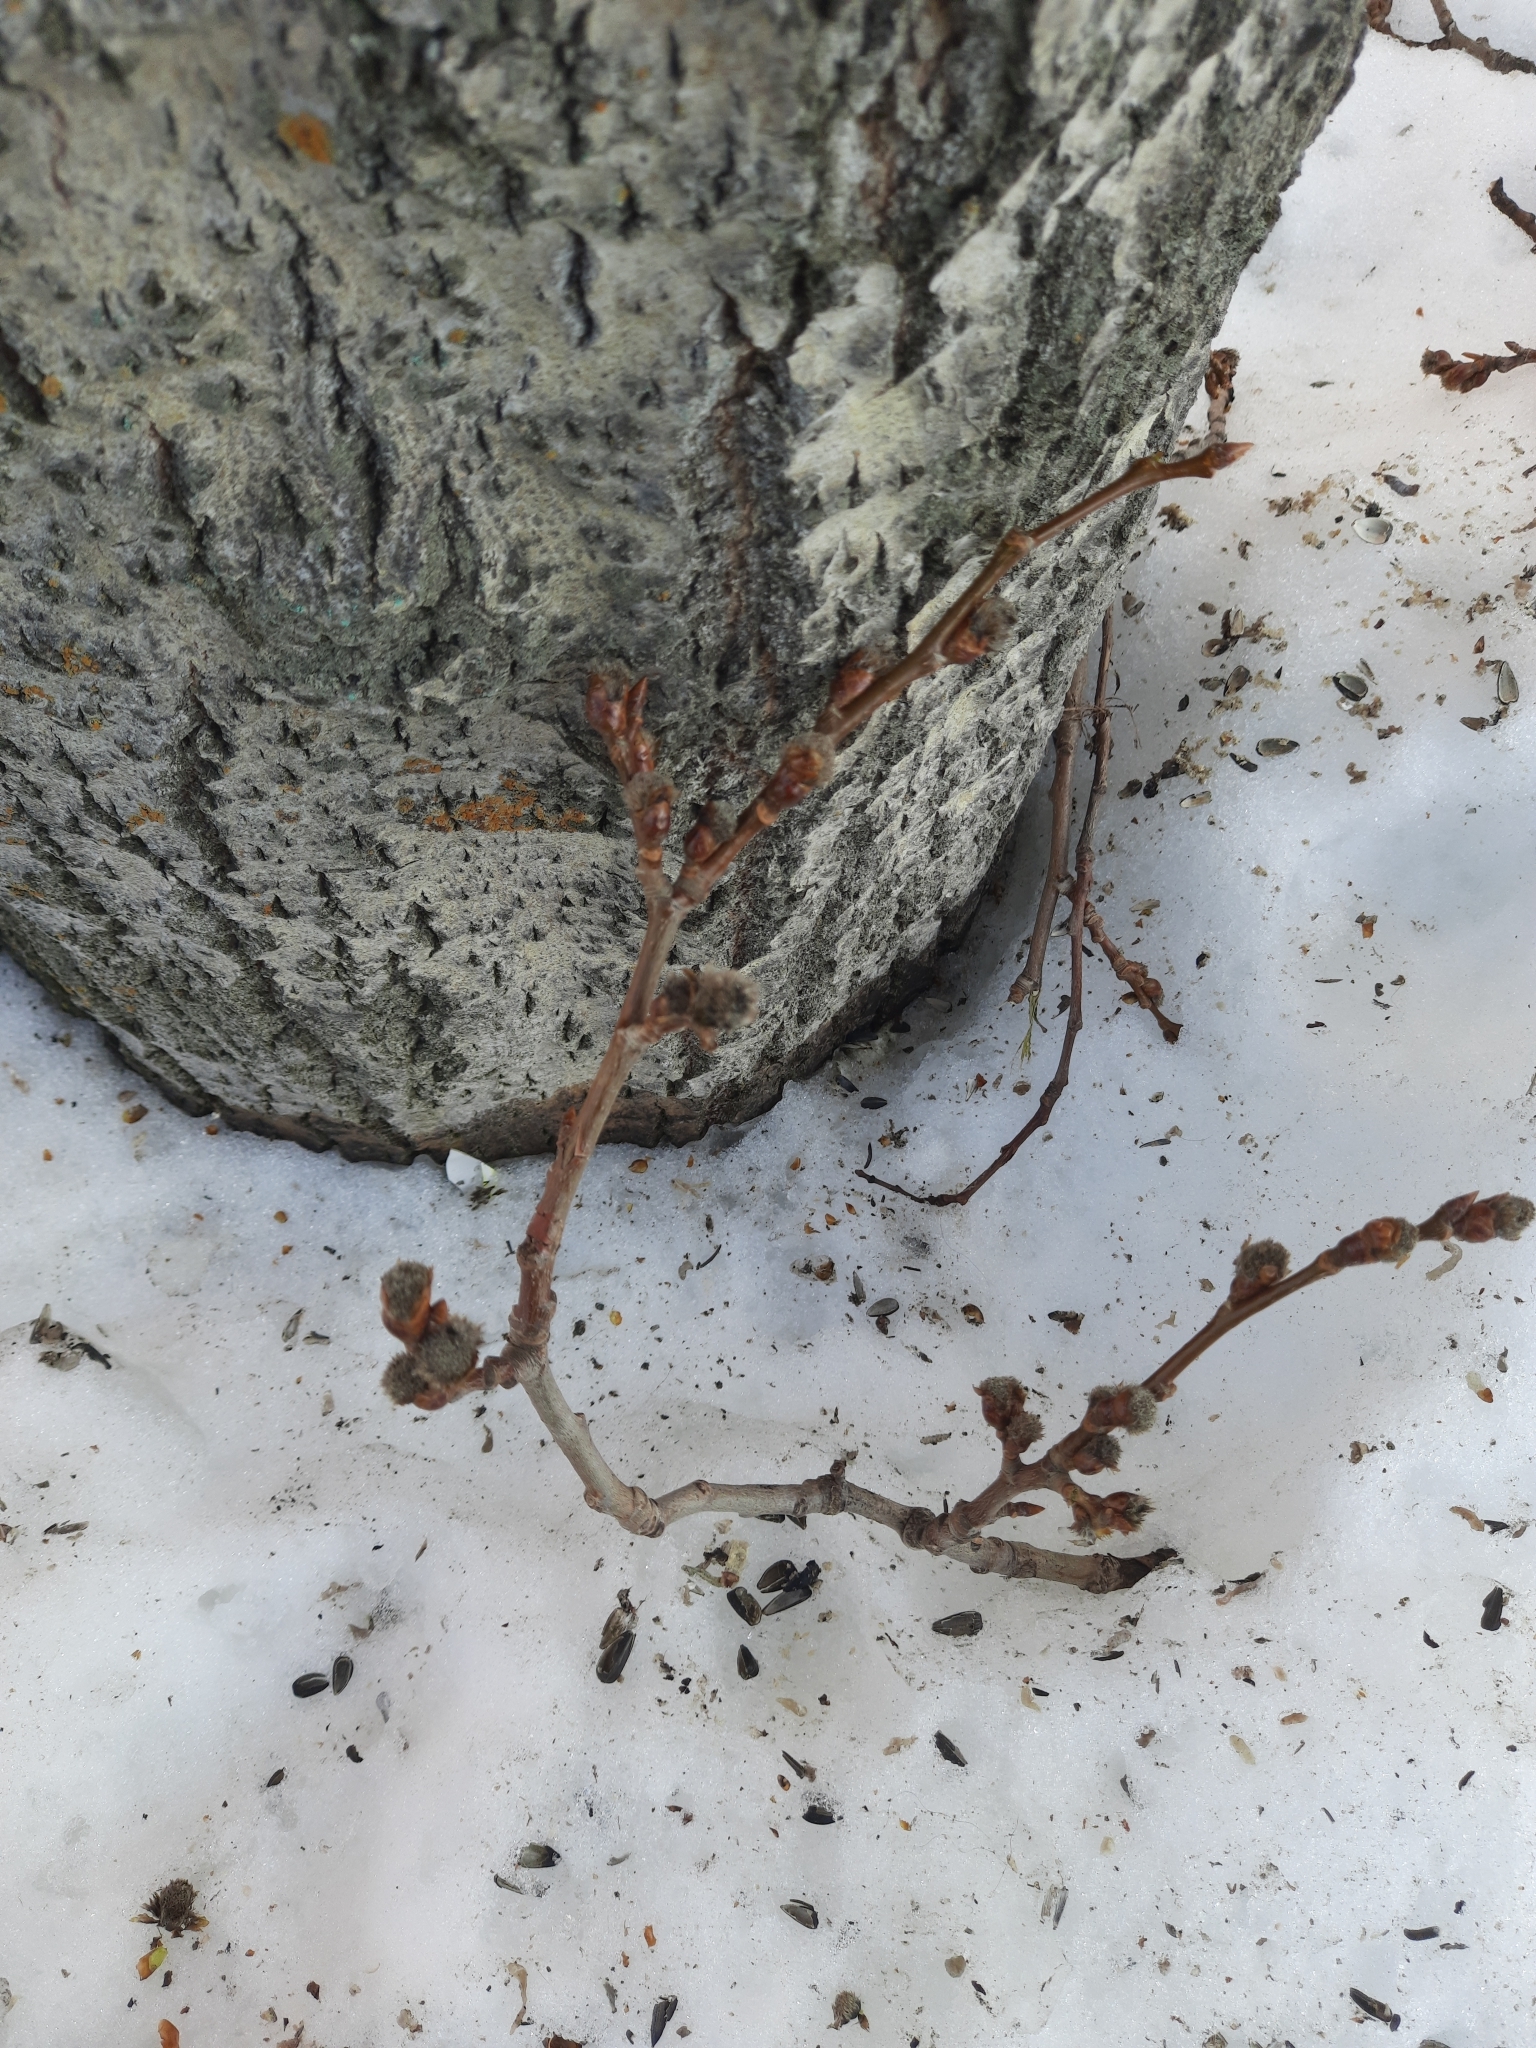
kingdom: Plantae
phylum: Tracheophyta
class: Magnoliopsida
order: Malpighiales
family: Salicaceae
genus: Populus
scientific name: Populus tremula
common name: European aspen
